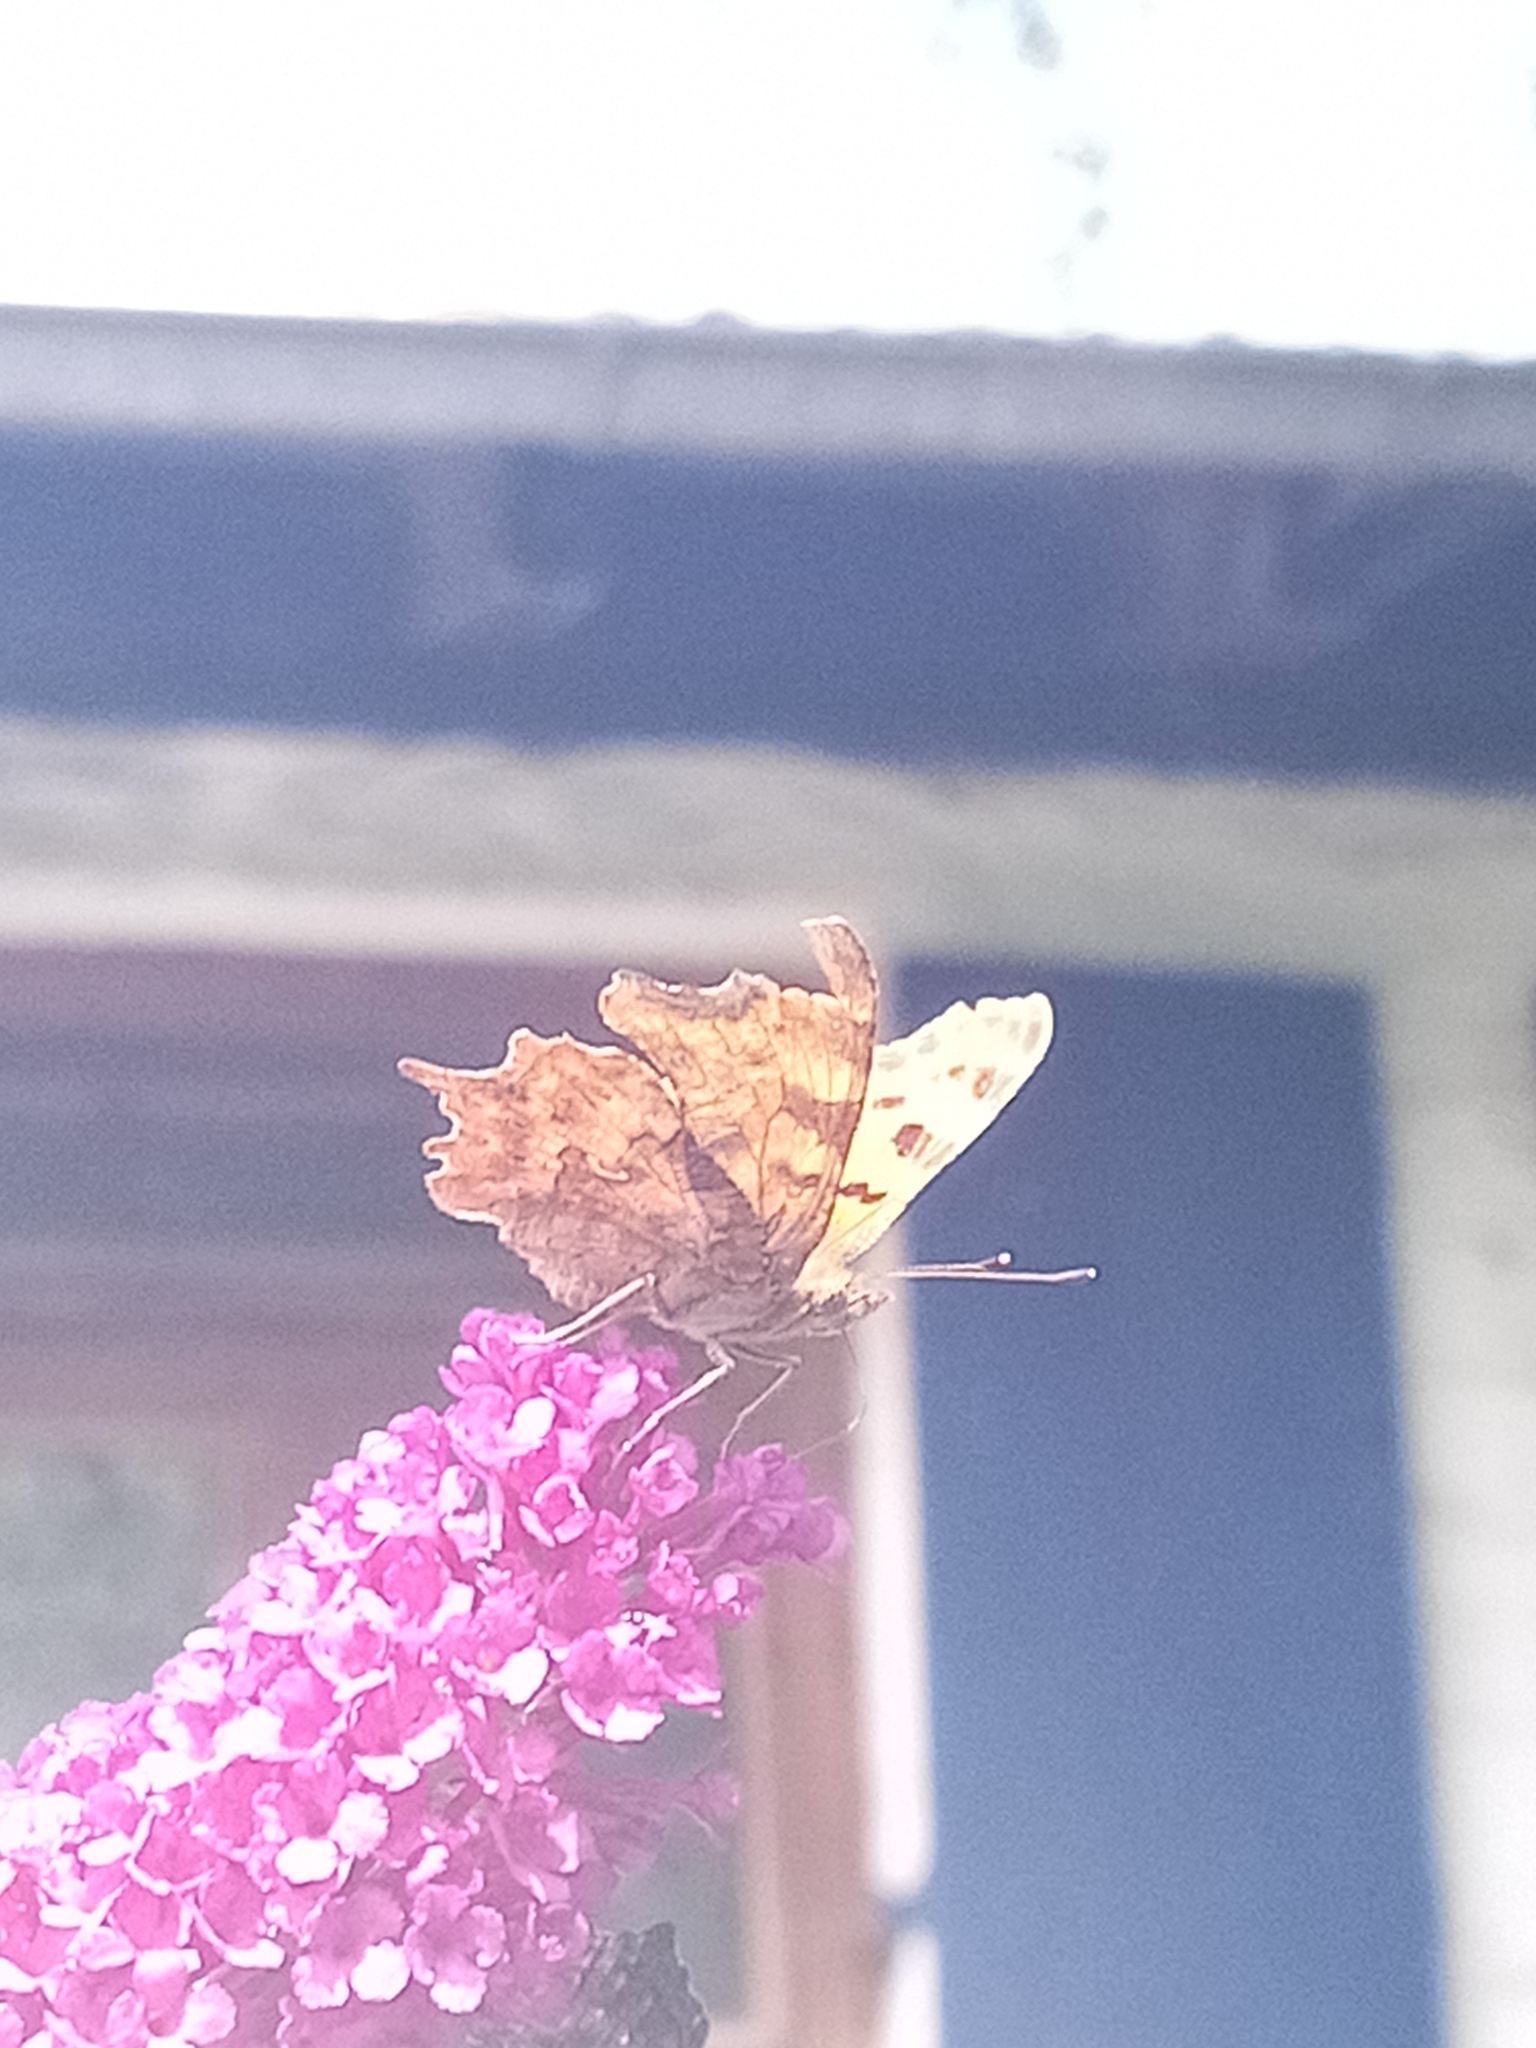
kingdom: Animalia
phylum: Arthropoda
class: Insecta
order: Lepidoptera
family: Nymphalidae
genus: Polygonia
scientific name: Polygonia c-album
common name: Comma
